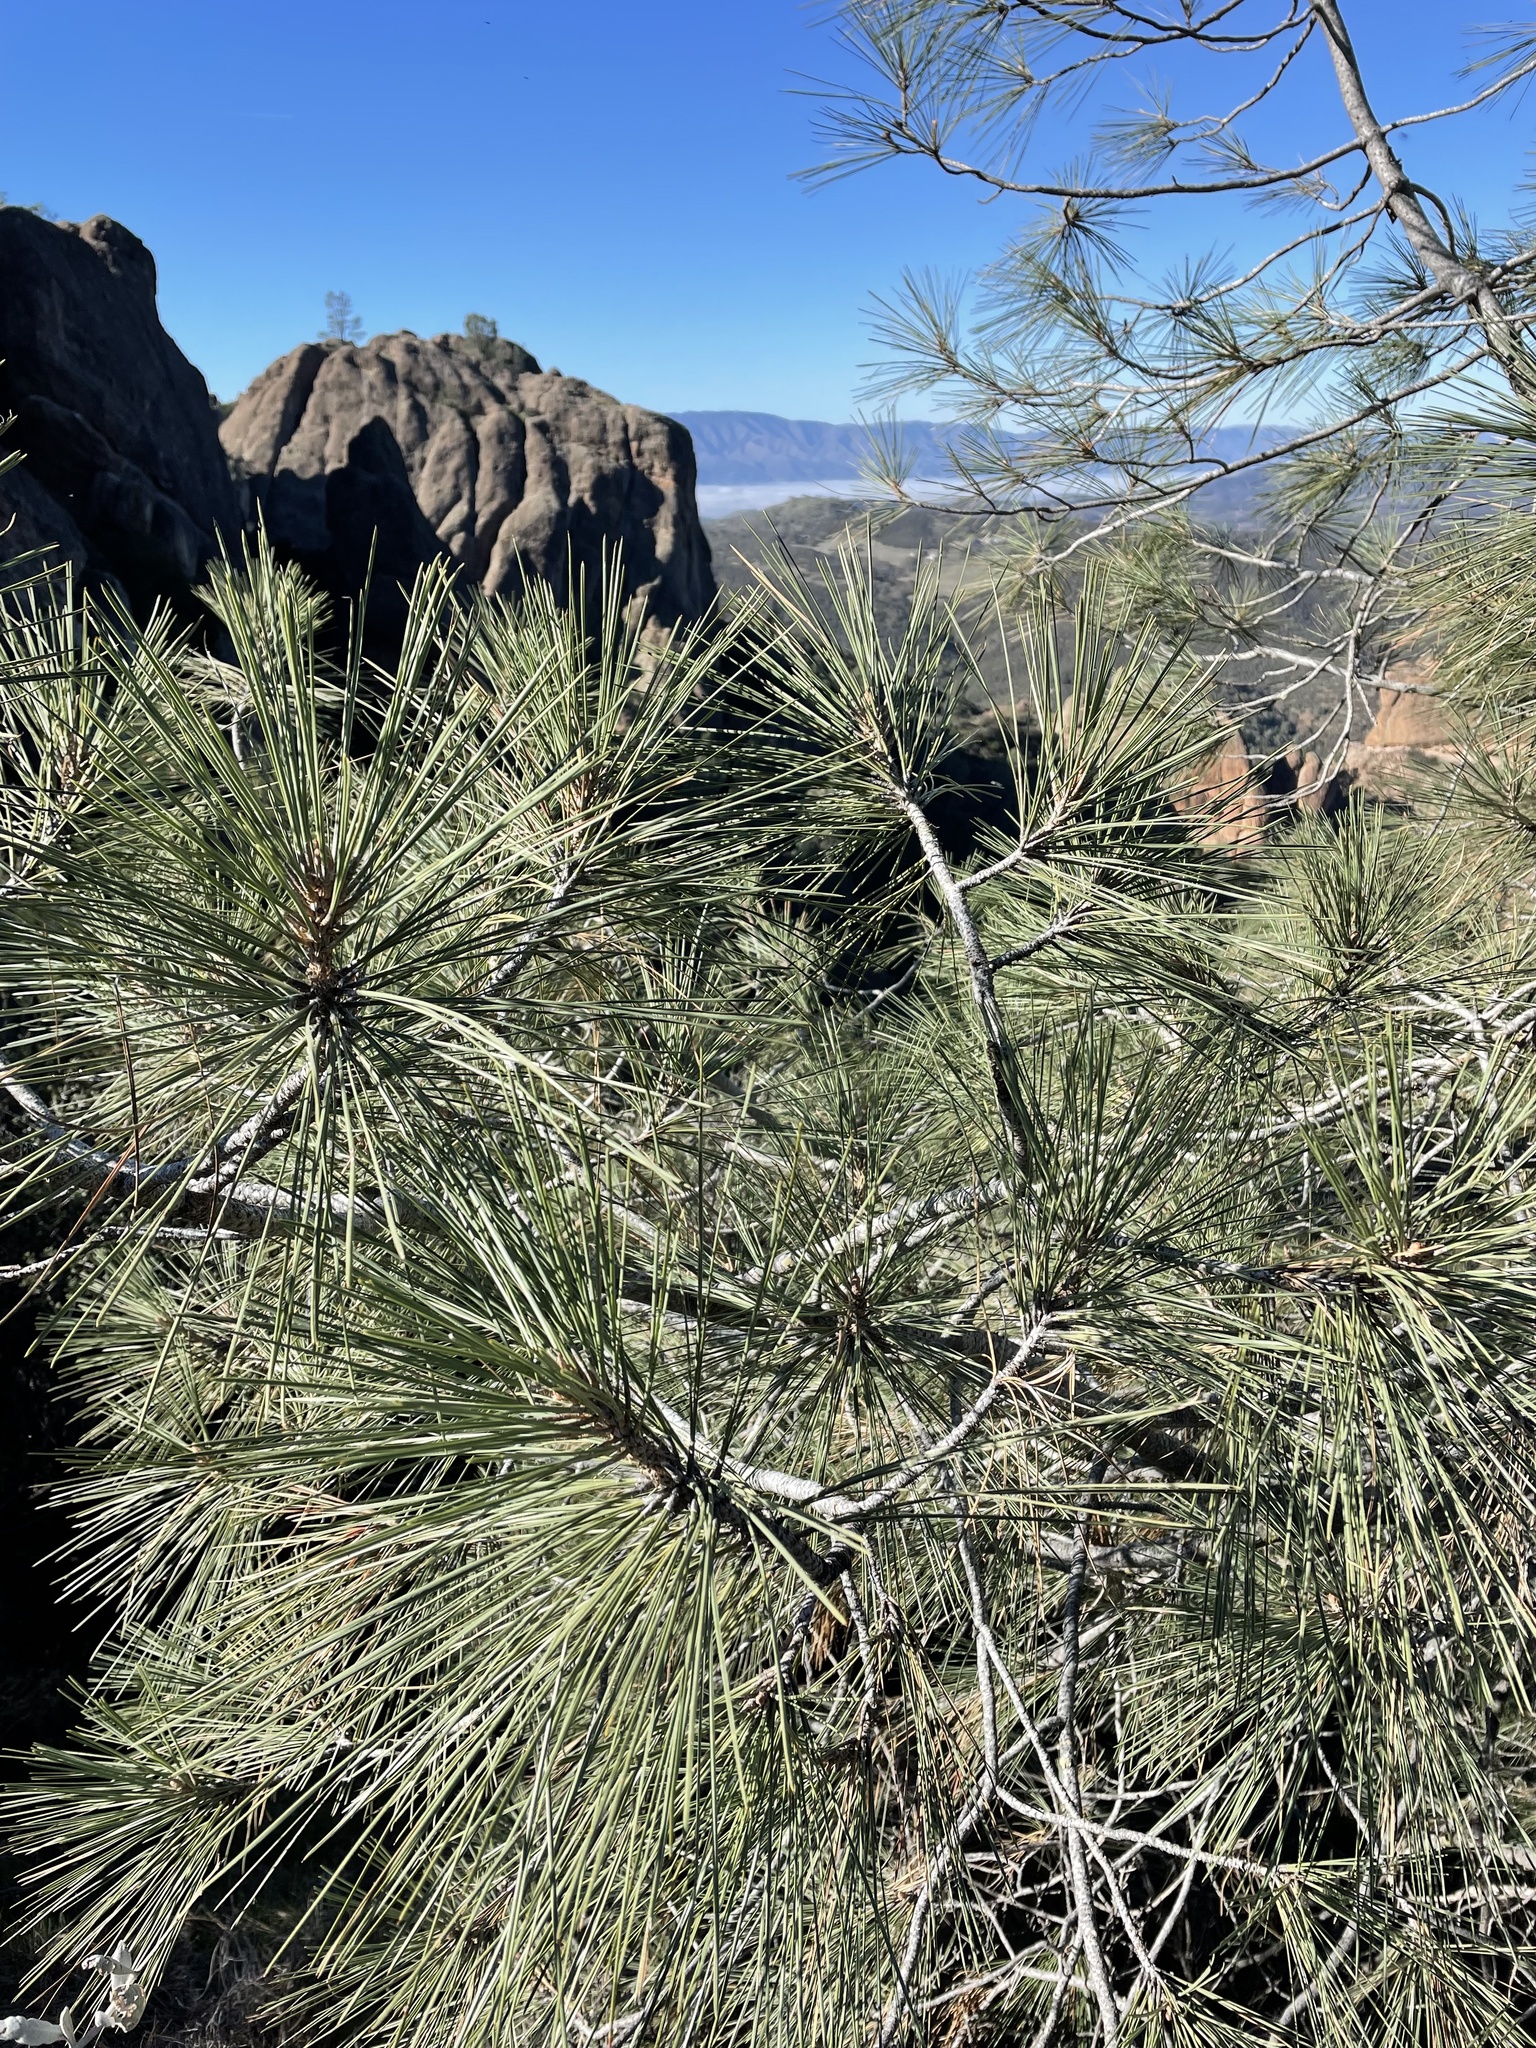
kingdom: Plantae
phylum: Tracheophyta
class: Pinopsida
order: Pinales
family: Pinaceae
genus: Pinus
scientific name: Pinus sabiniana
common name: Bull pine
